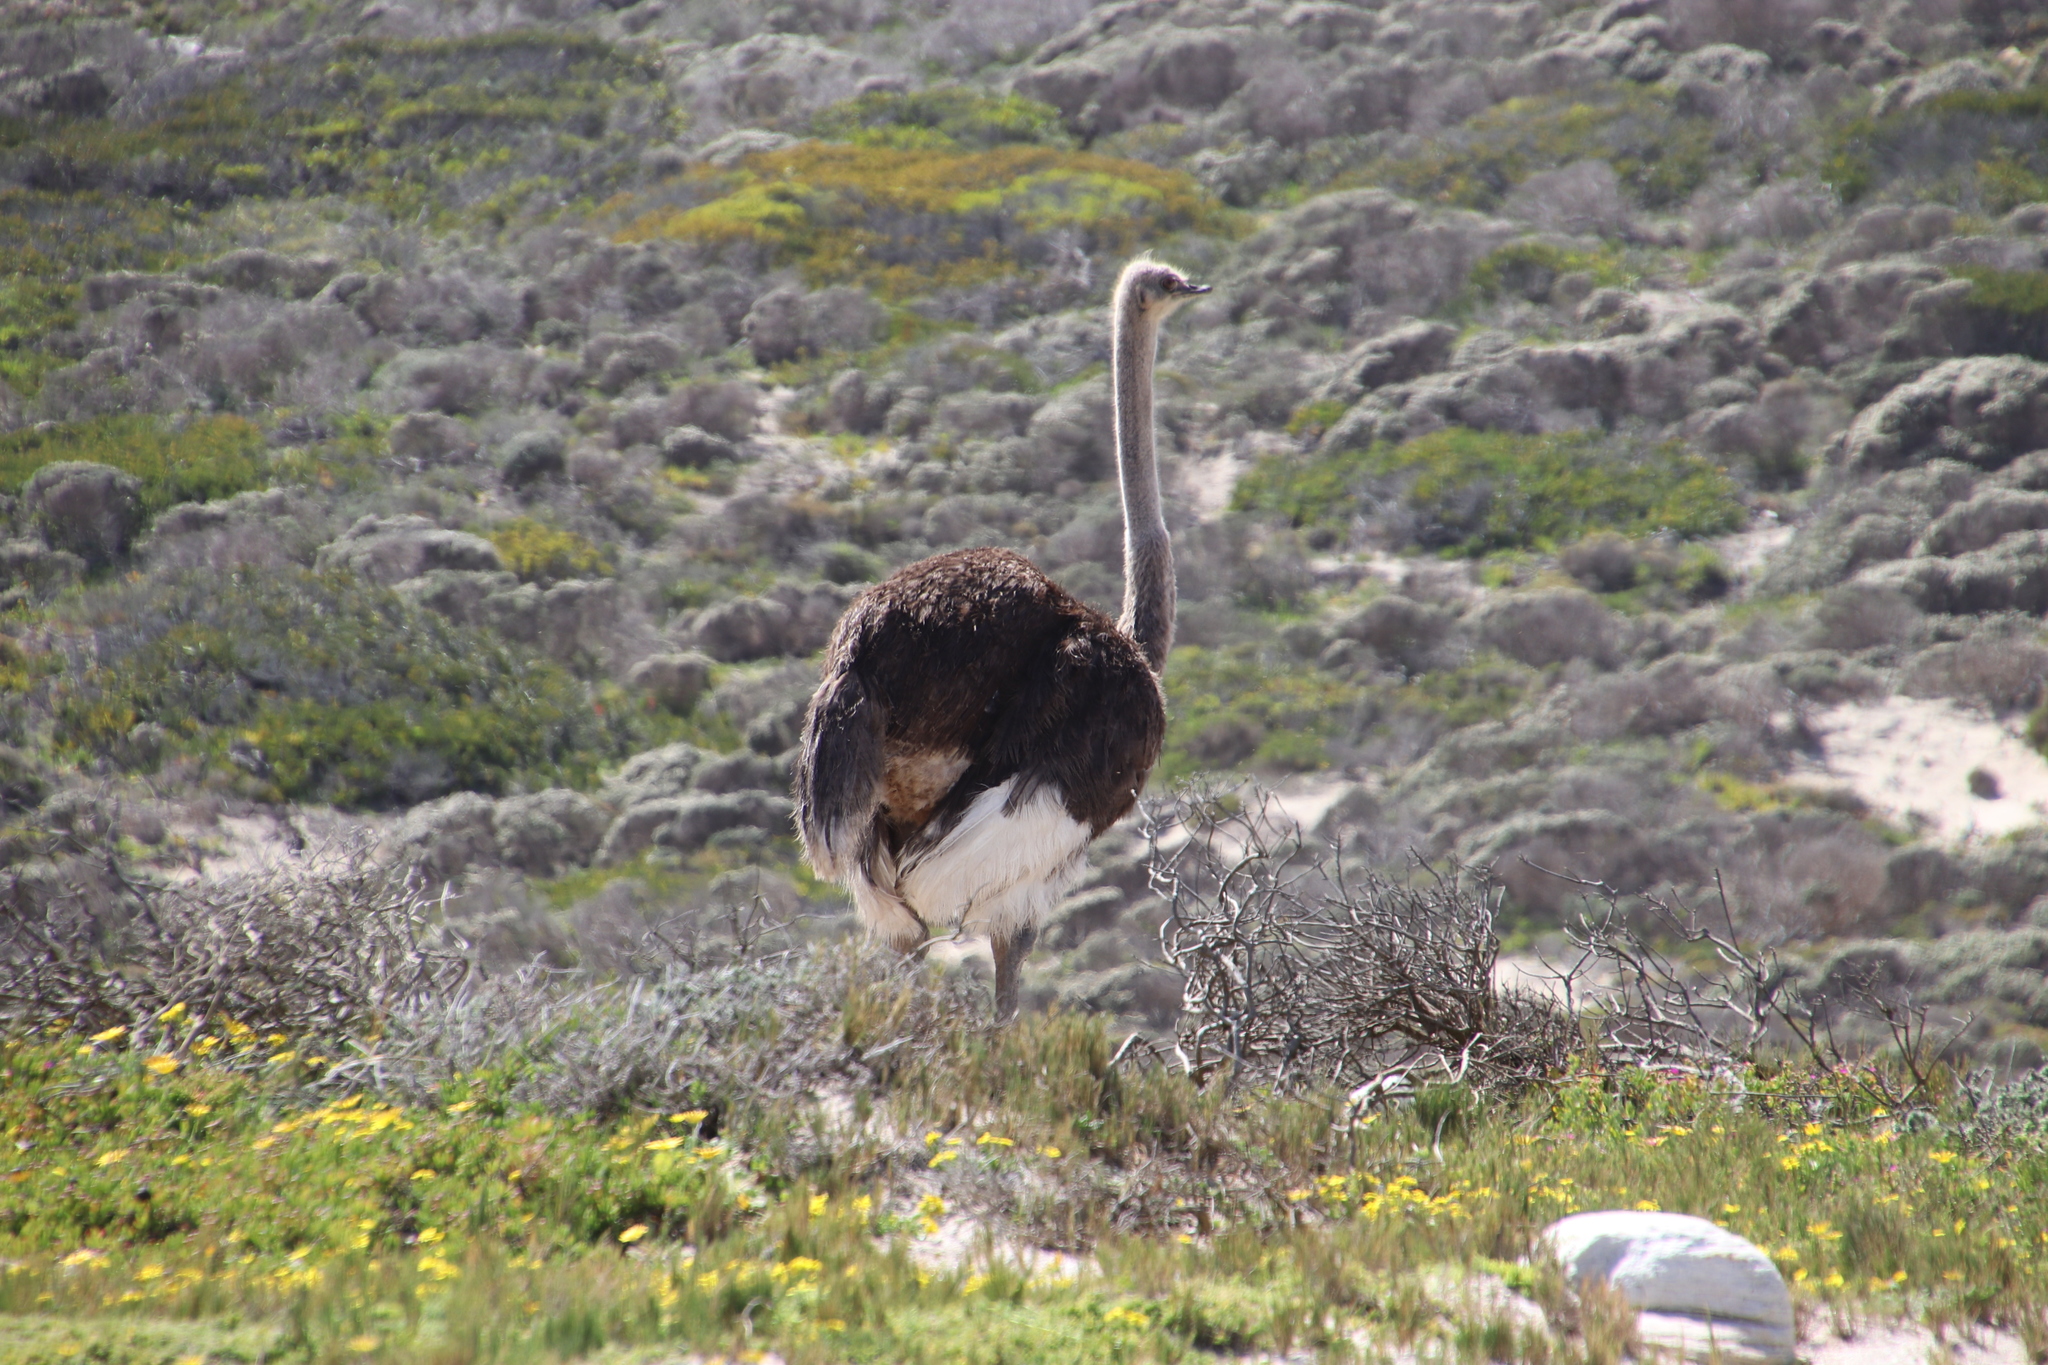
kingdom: Animalia
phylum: Chordata
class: Aves
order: Struthioniformes
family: Struthionidae
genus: Struthio
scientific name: Struthio camelus
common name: Common ostrich
